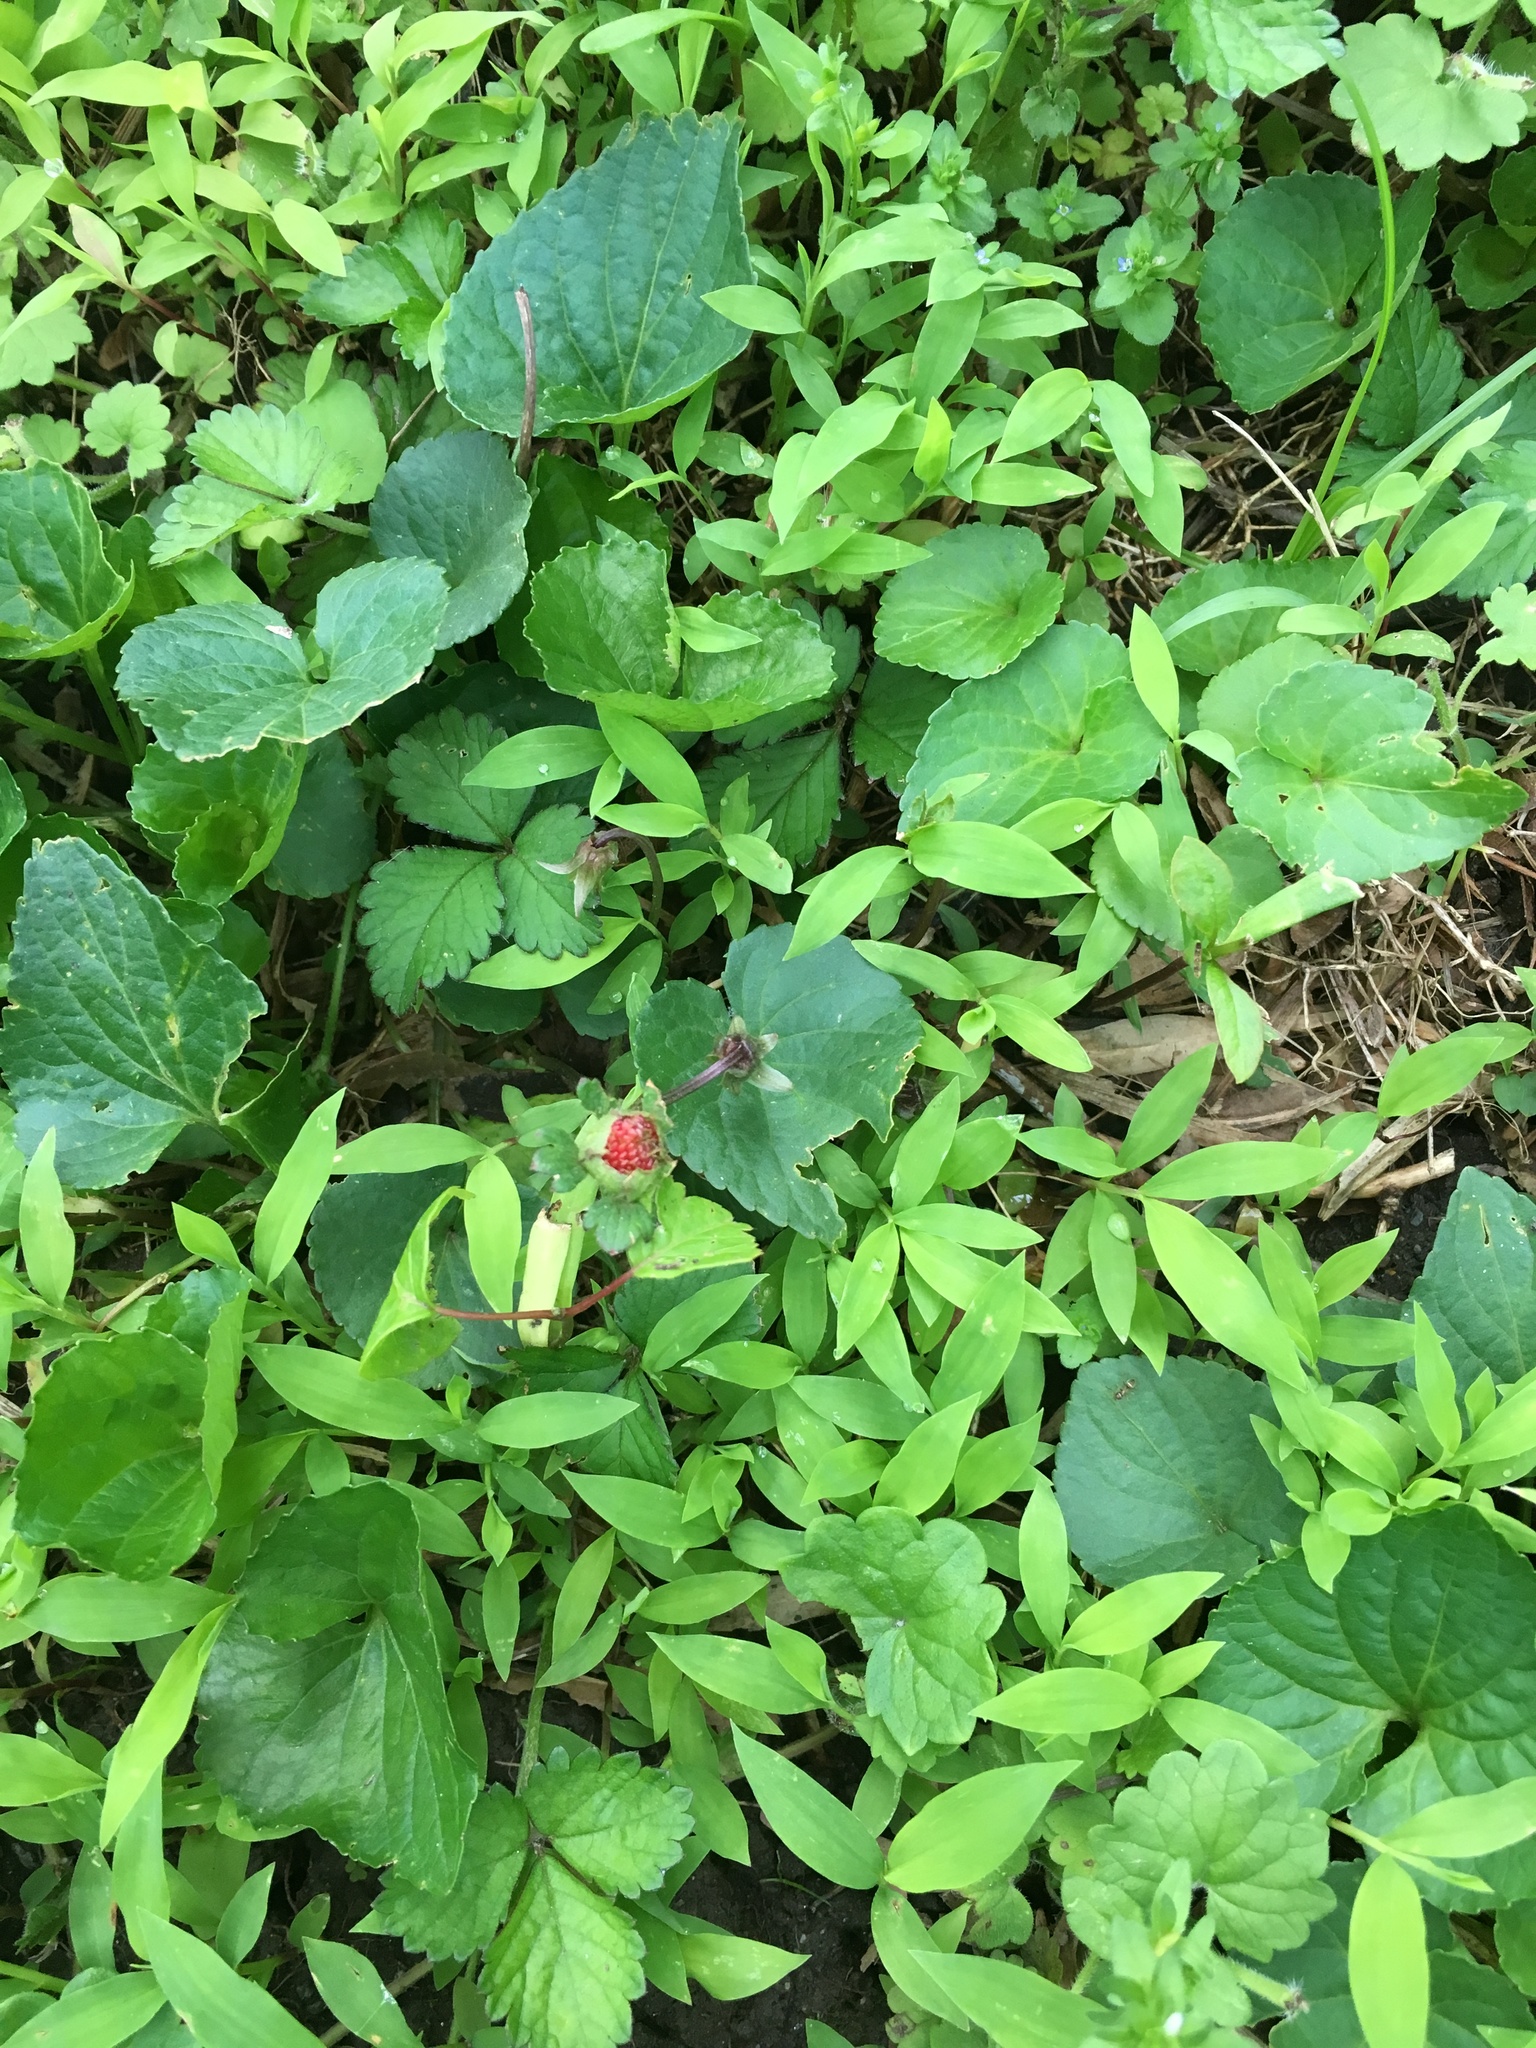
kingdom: Plantae
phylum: Tracheophyta
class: Magnoliopsida
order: Rosales
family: Rosaceae
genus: Potentilla
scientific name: Potentilla indica
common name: Yellow-flowered strawberry
